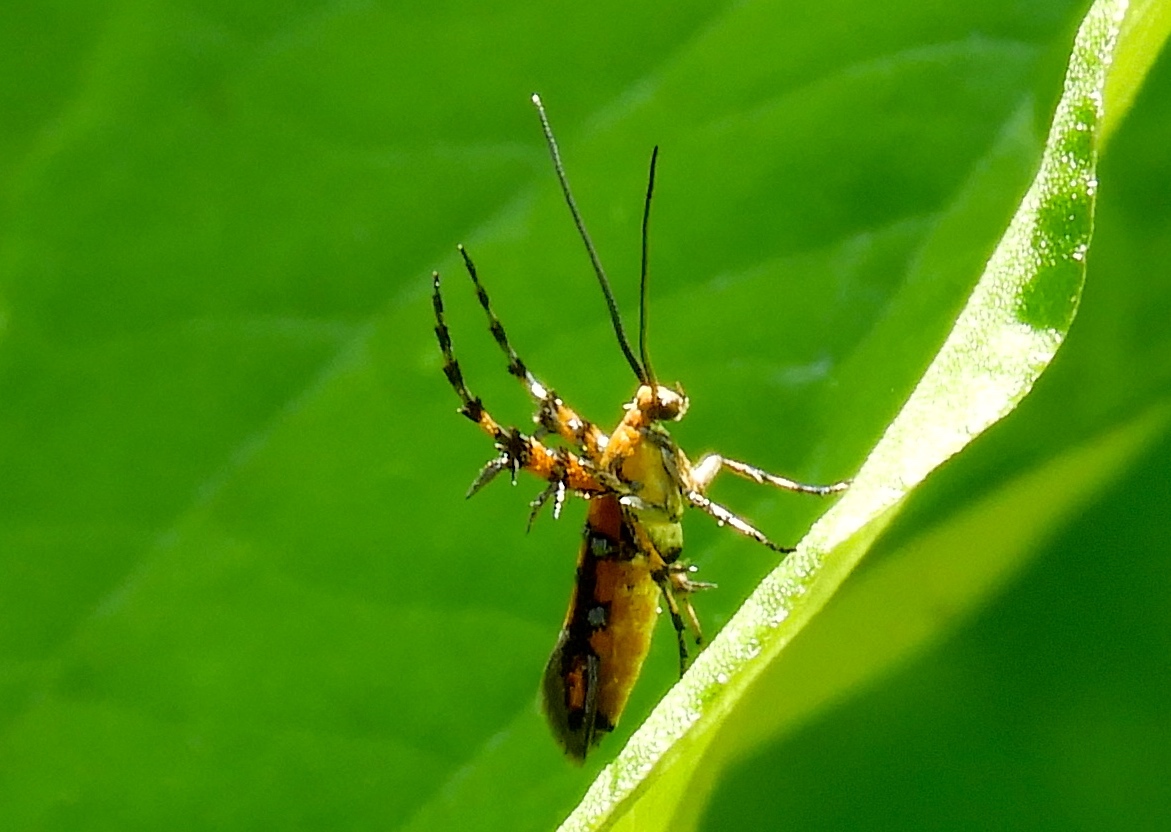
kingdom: Animalia
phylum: Arthropoda
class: Insecta
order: Lepidoptera
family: Heliodinidae
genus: Heliodines
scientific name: Heliodines
